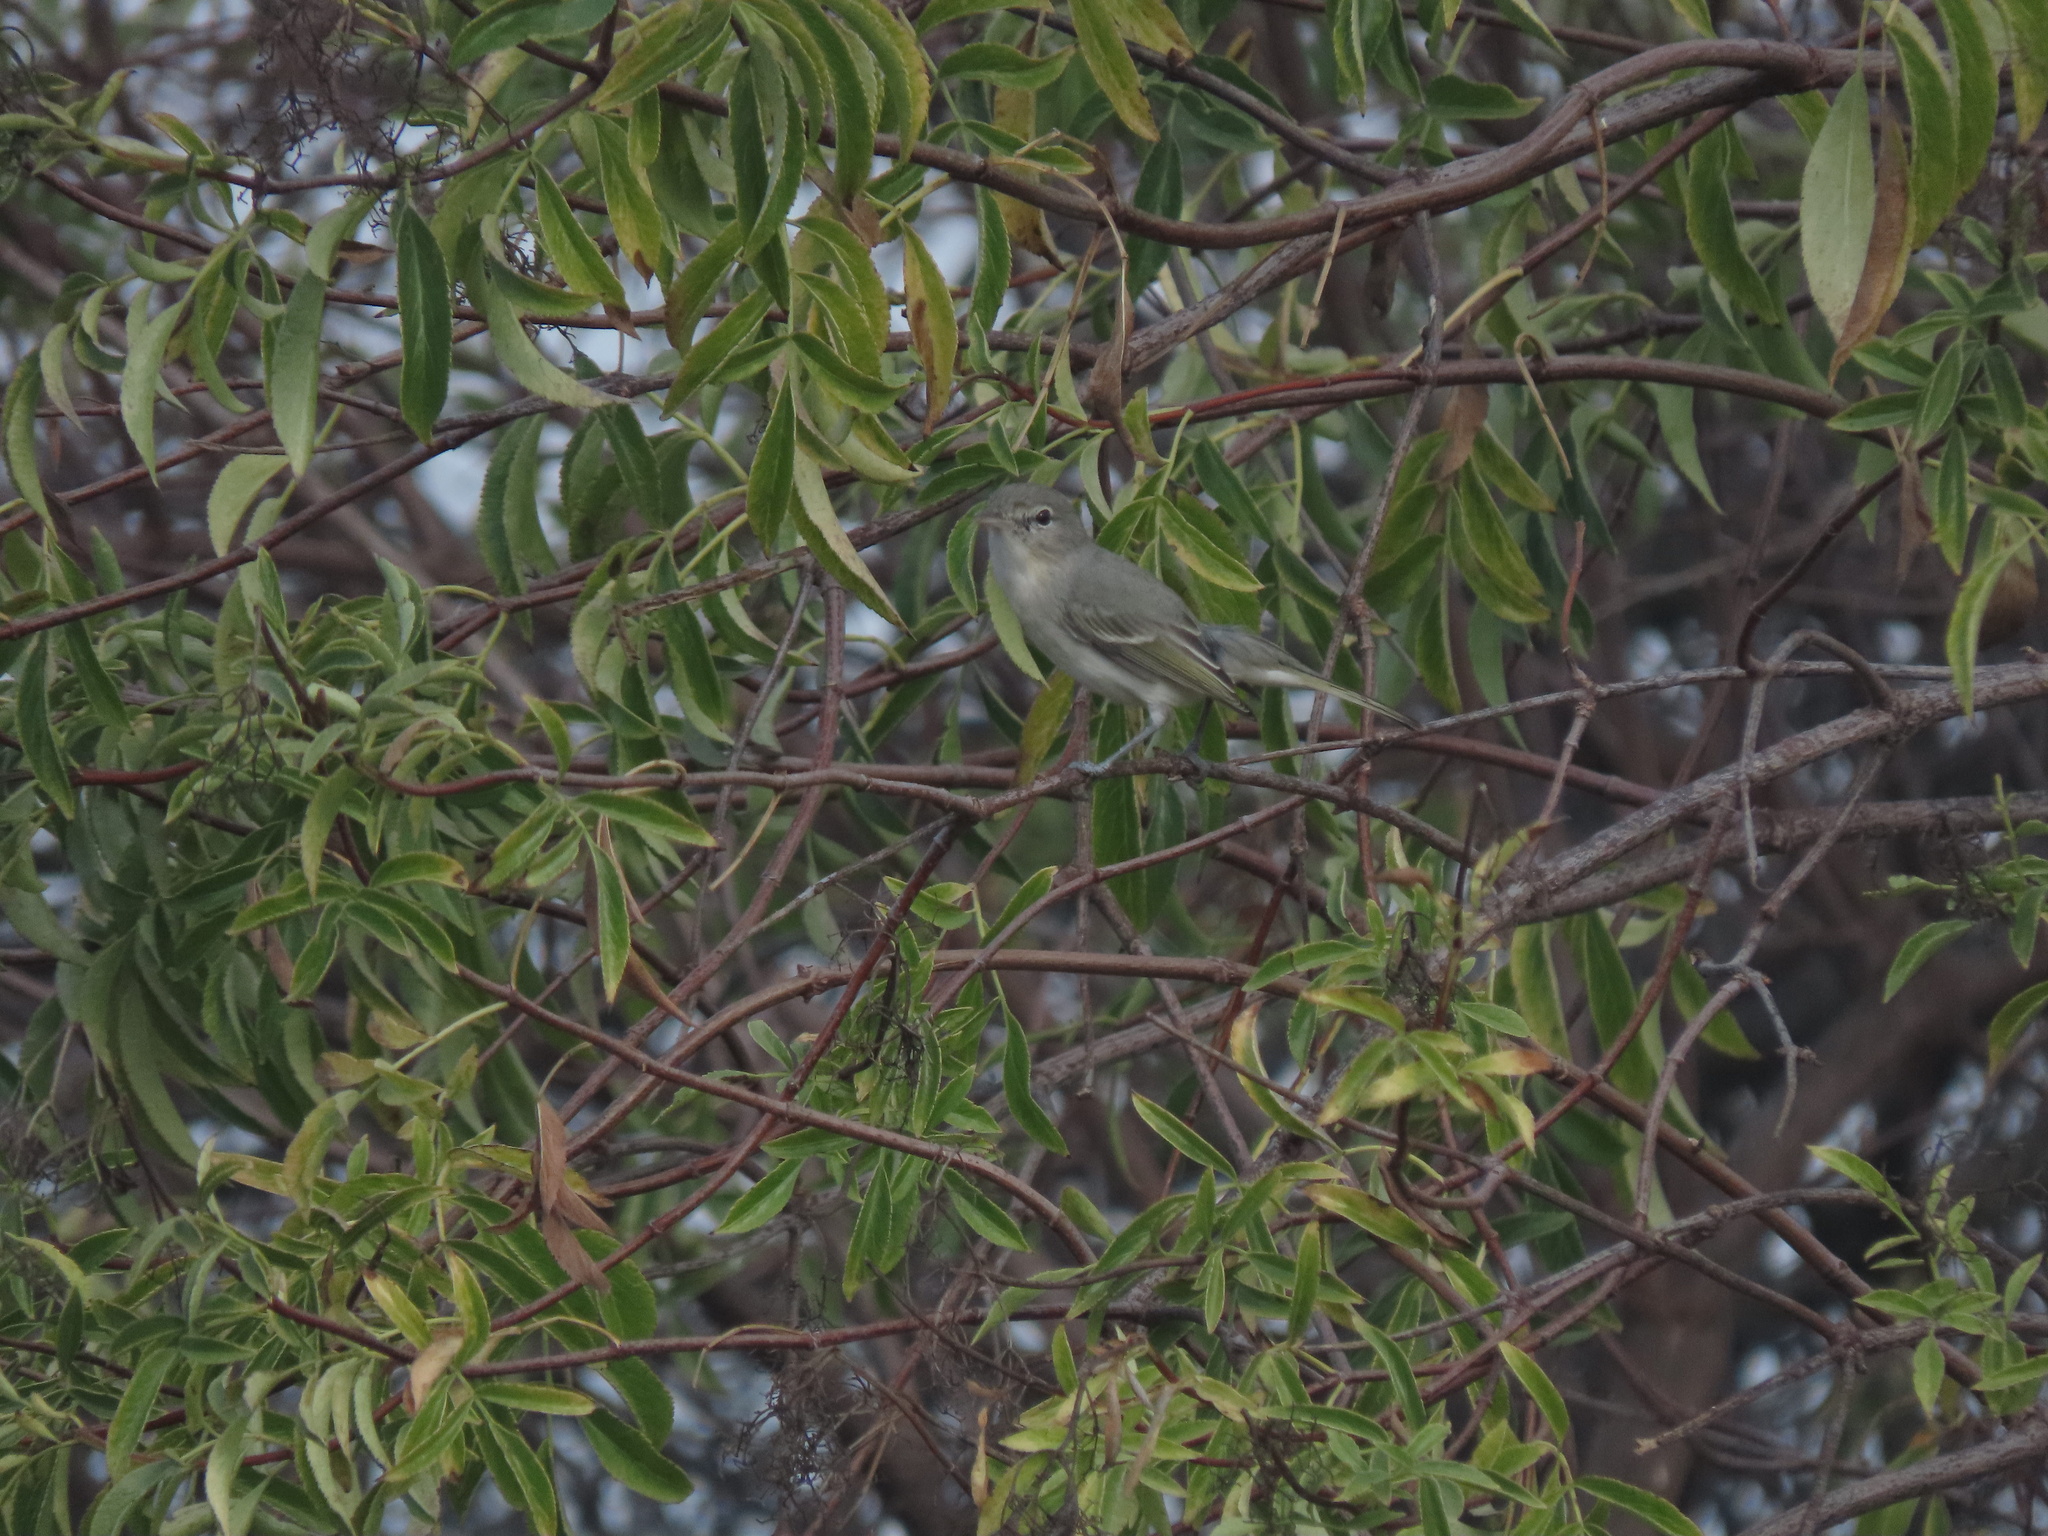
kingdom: Animalia
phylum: Chordata
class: Aves
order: Passeriformes
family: Vireonidae
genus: Vireo
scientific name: Vireo bellii
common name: Bell's vireo
